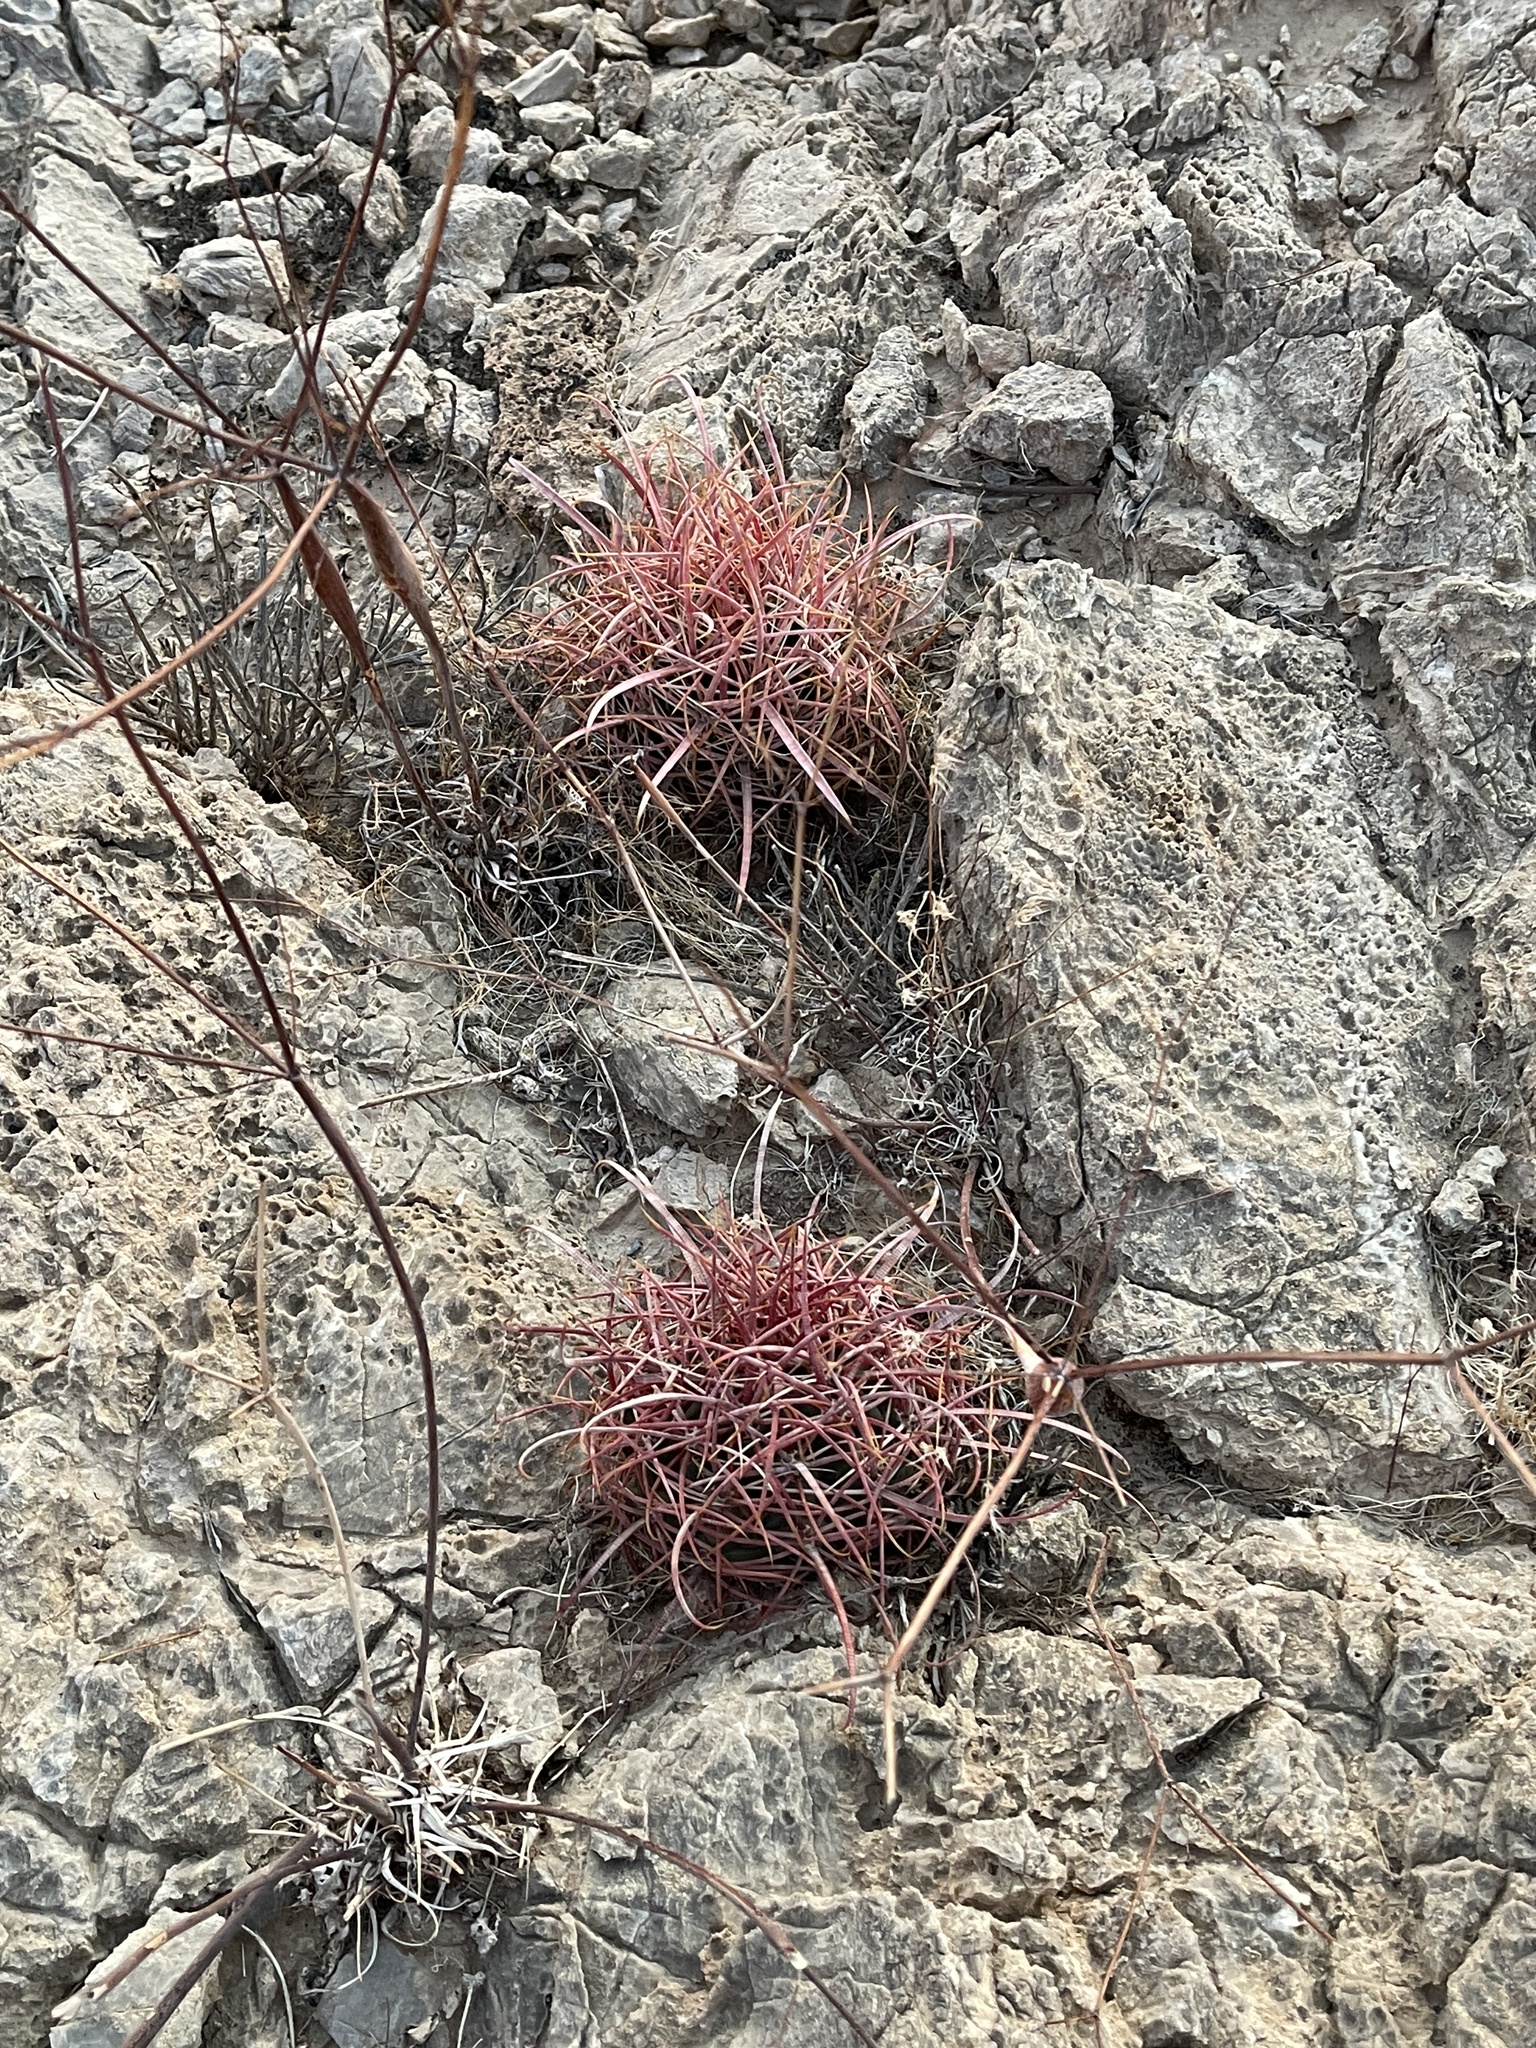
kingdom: Plantae
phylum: Tracheophyta
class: Magnoliopsida
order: Caryophyllales
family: Cactaceae
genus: Ferocactus
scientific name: Ferocactus cylindraceus
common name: California barrel cactus
